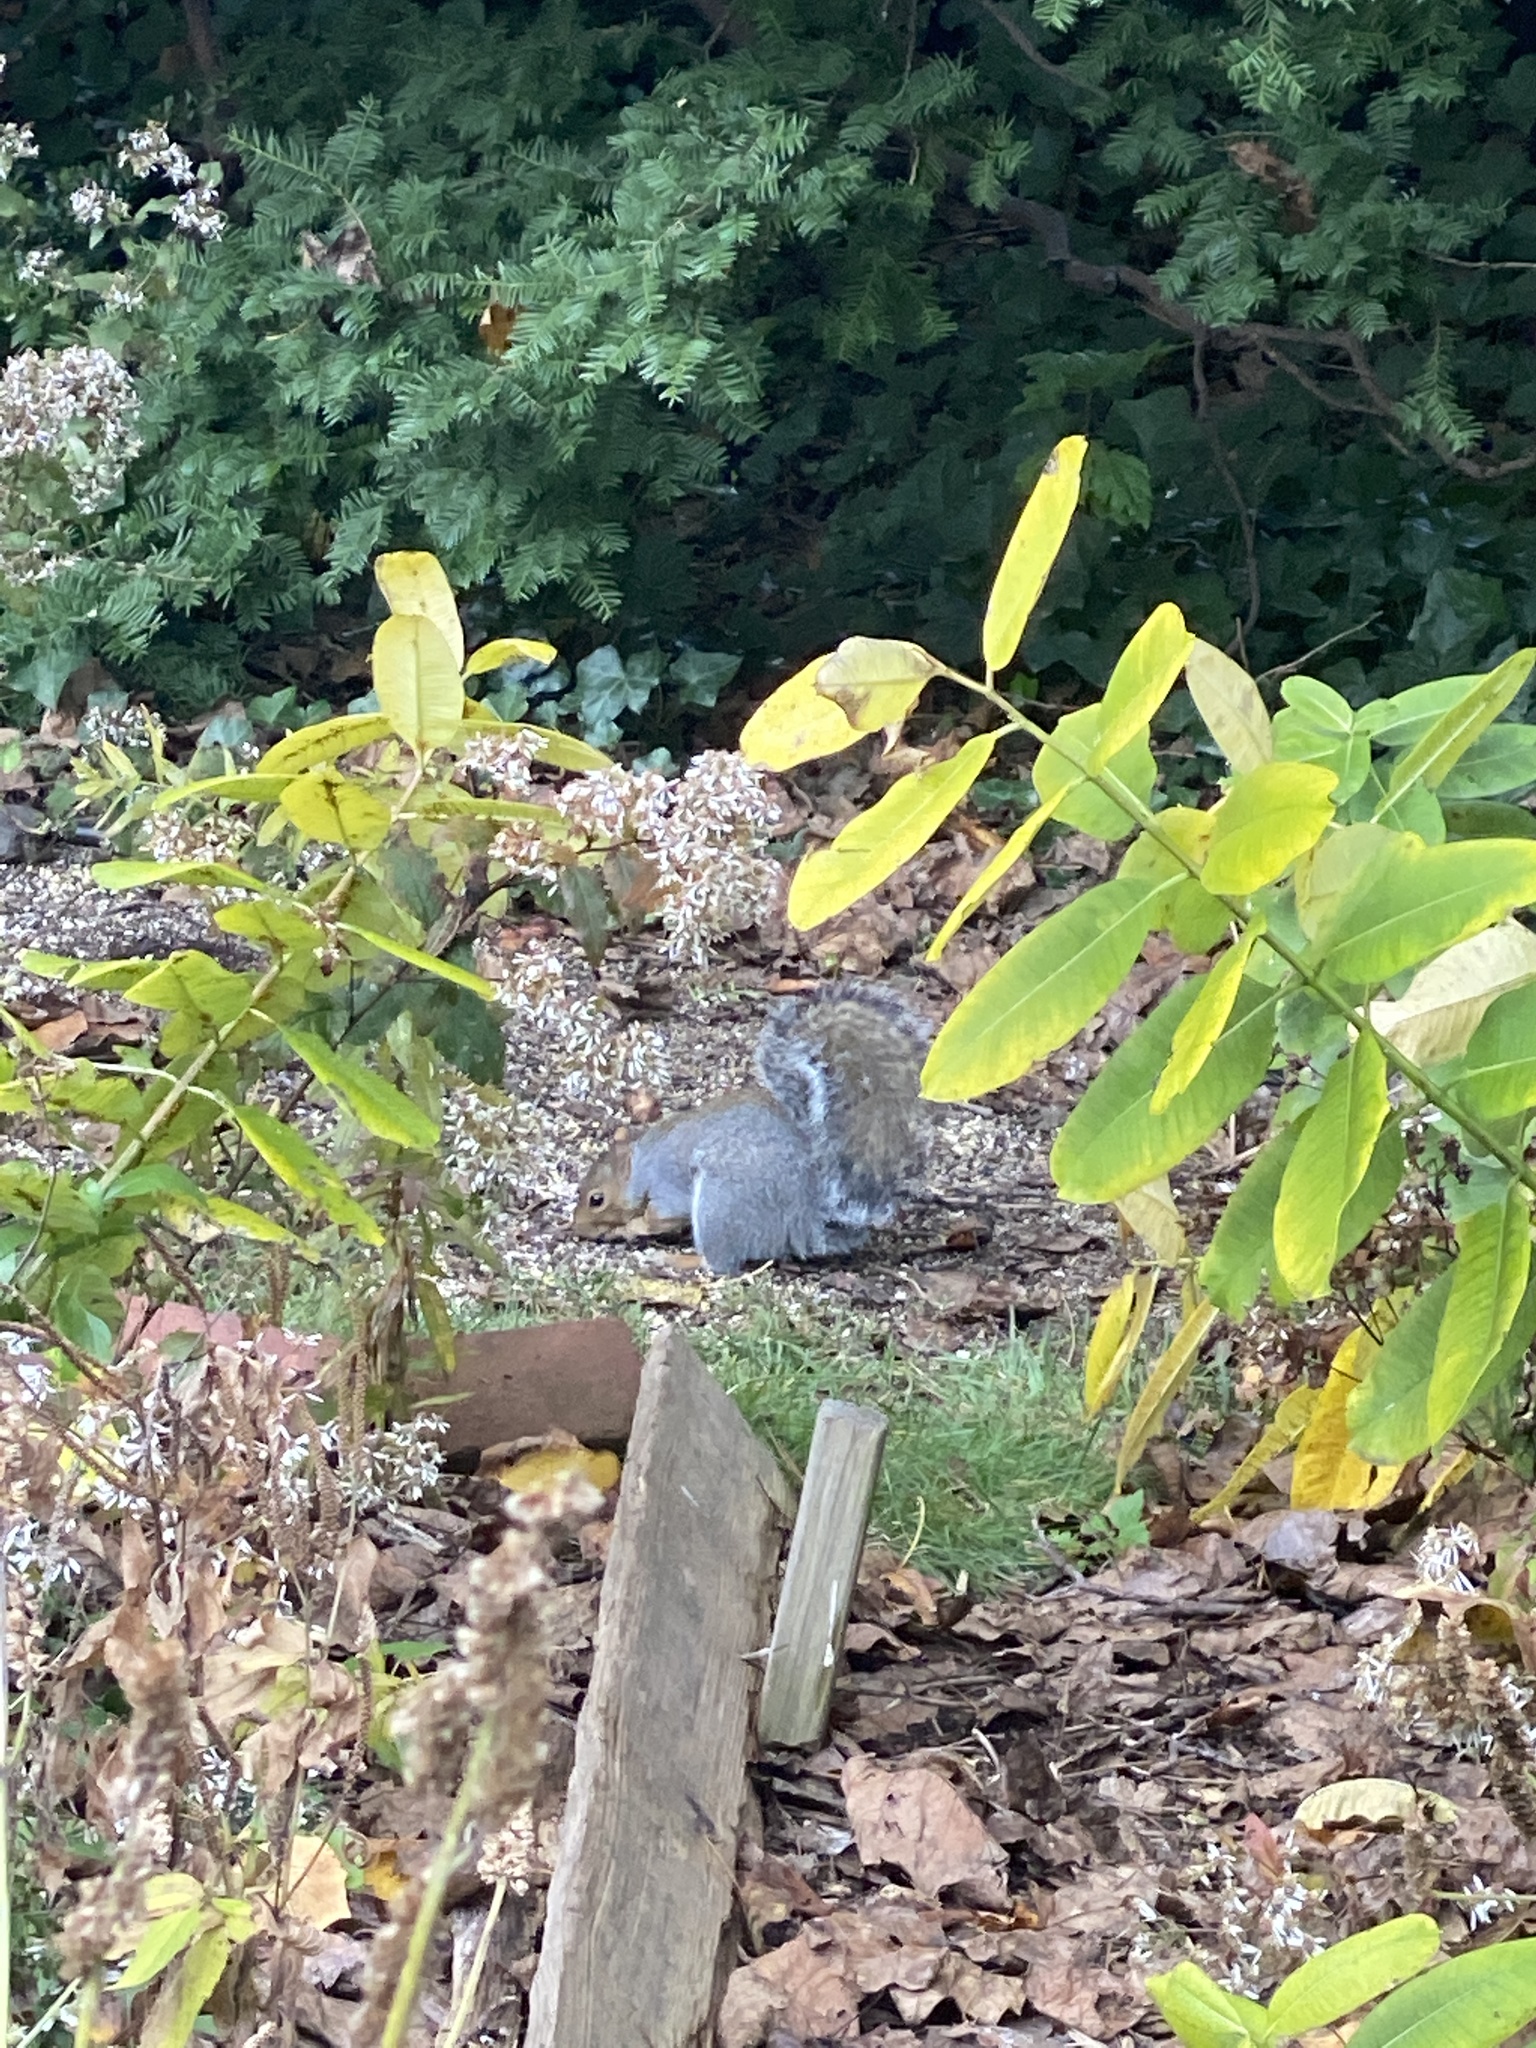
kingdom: Animalia
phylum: Chordata
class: Mammalia
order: Rodentia
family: Sciuridae
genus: Sciurus
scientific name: Sciurus carolinensis
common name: Eastern gray squirrel
